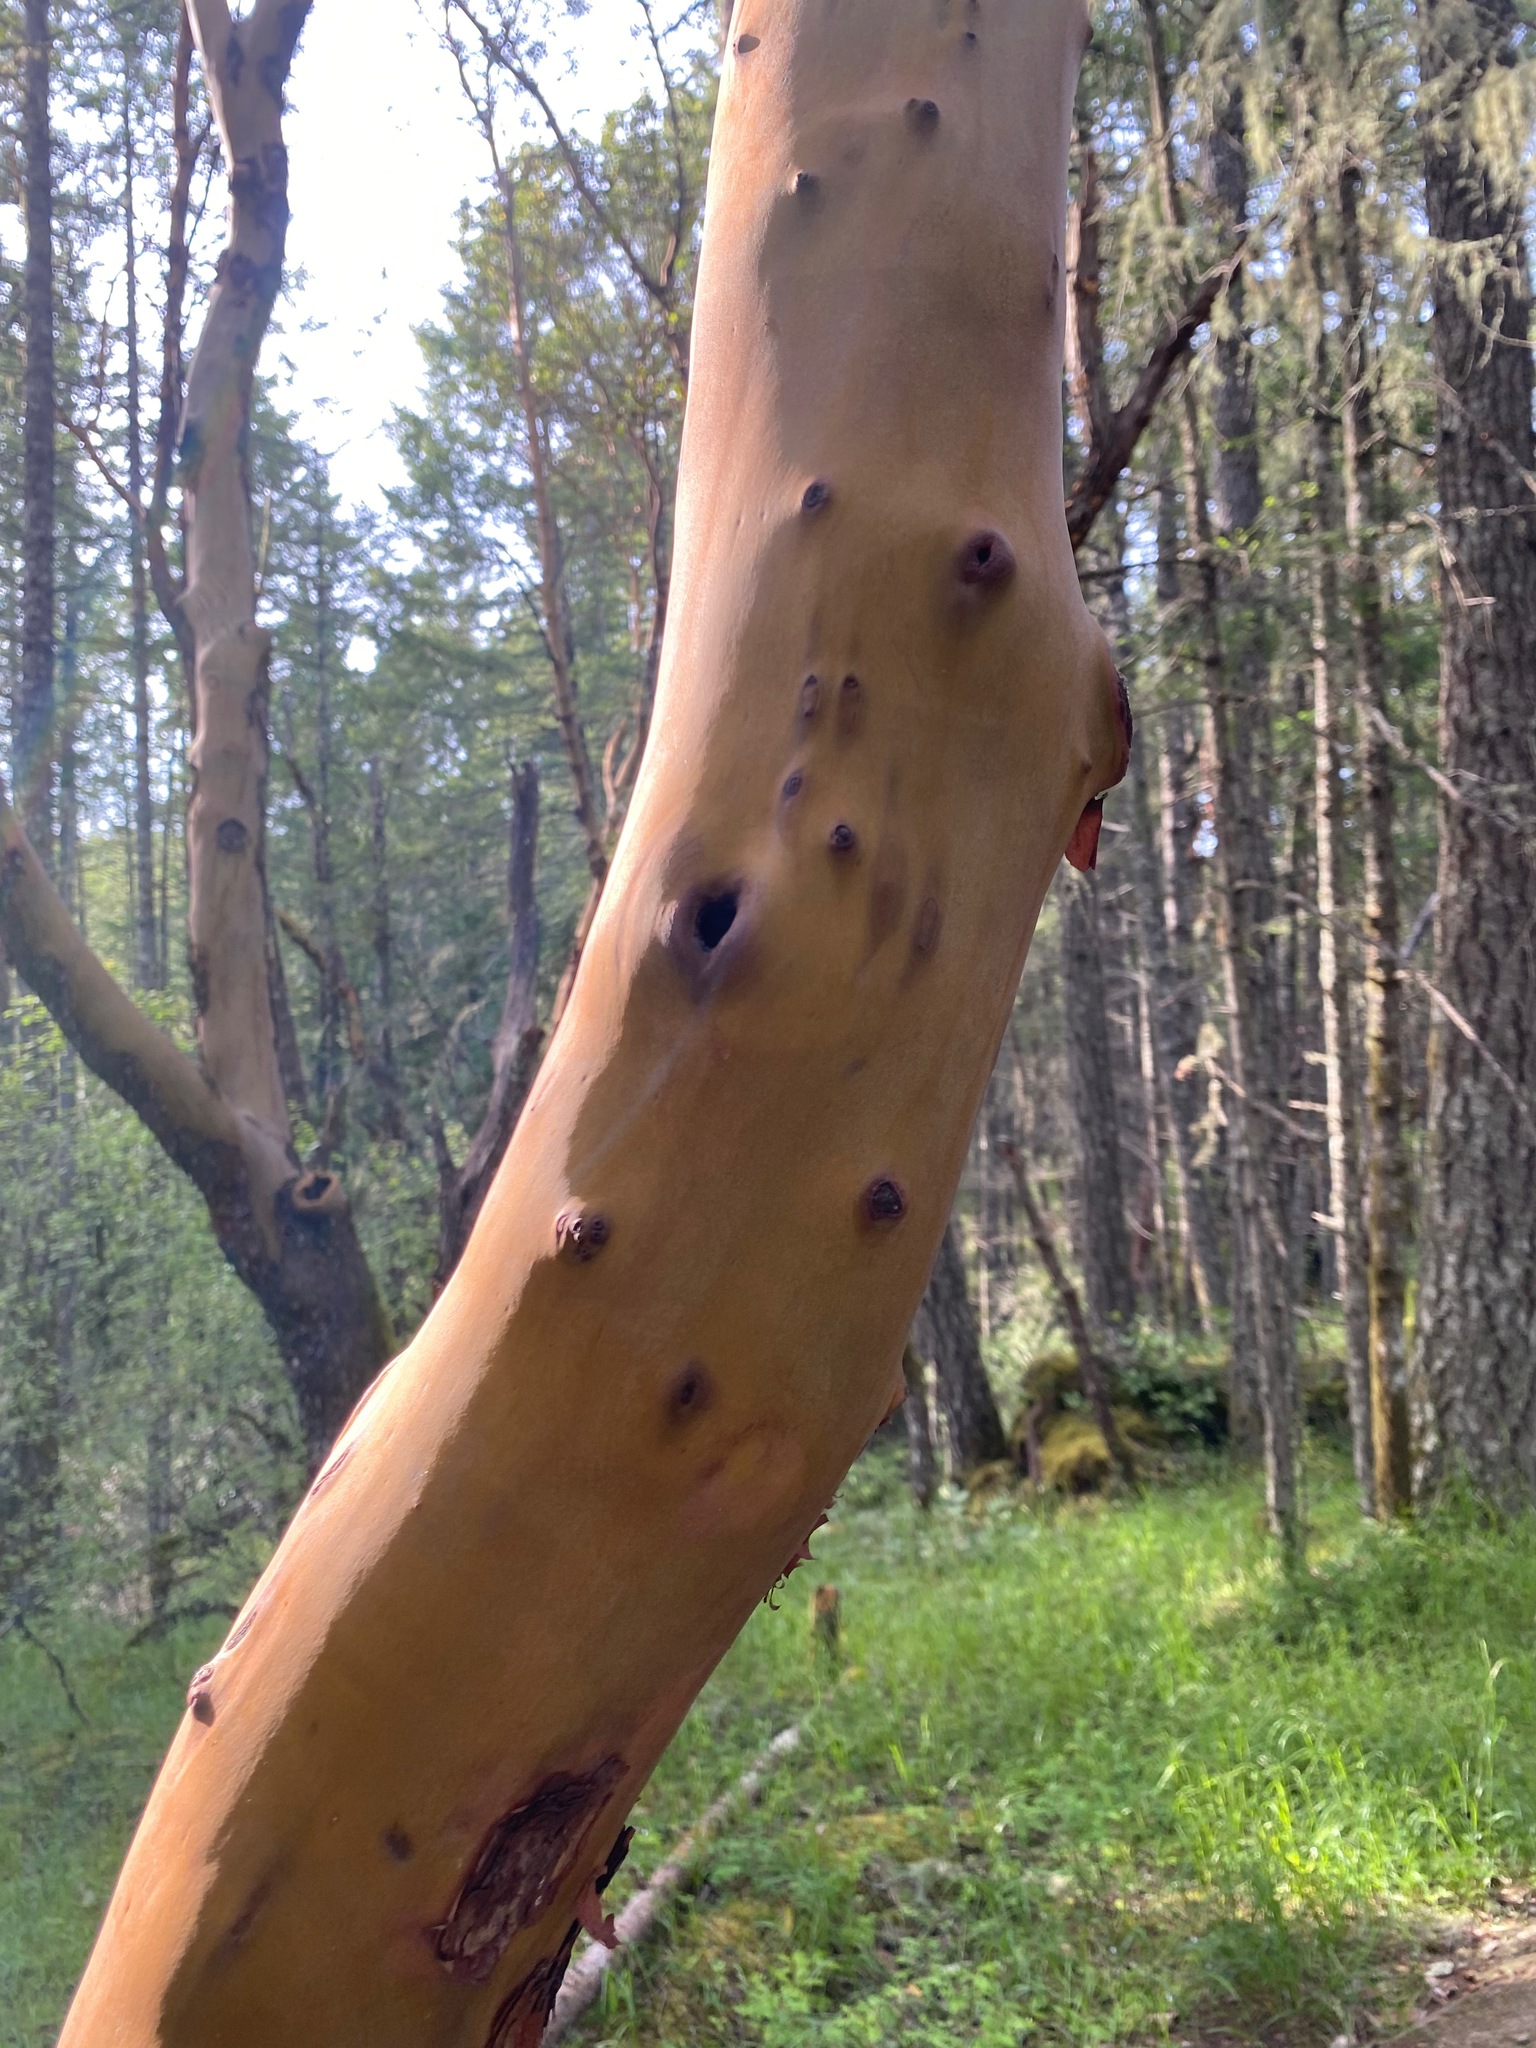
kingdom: Plantae
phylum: Tracheophyta
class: Magnoliopsida
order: Ericales
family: Ericaceae
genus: Arbutus
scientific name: Arbutus menziesii
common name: Pacific madrone
